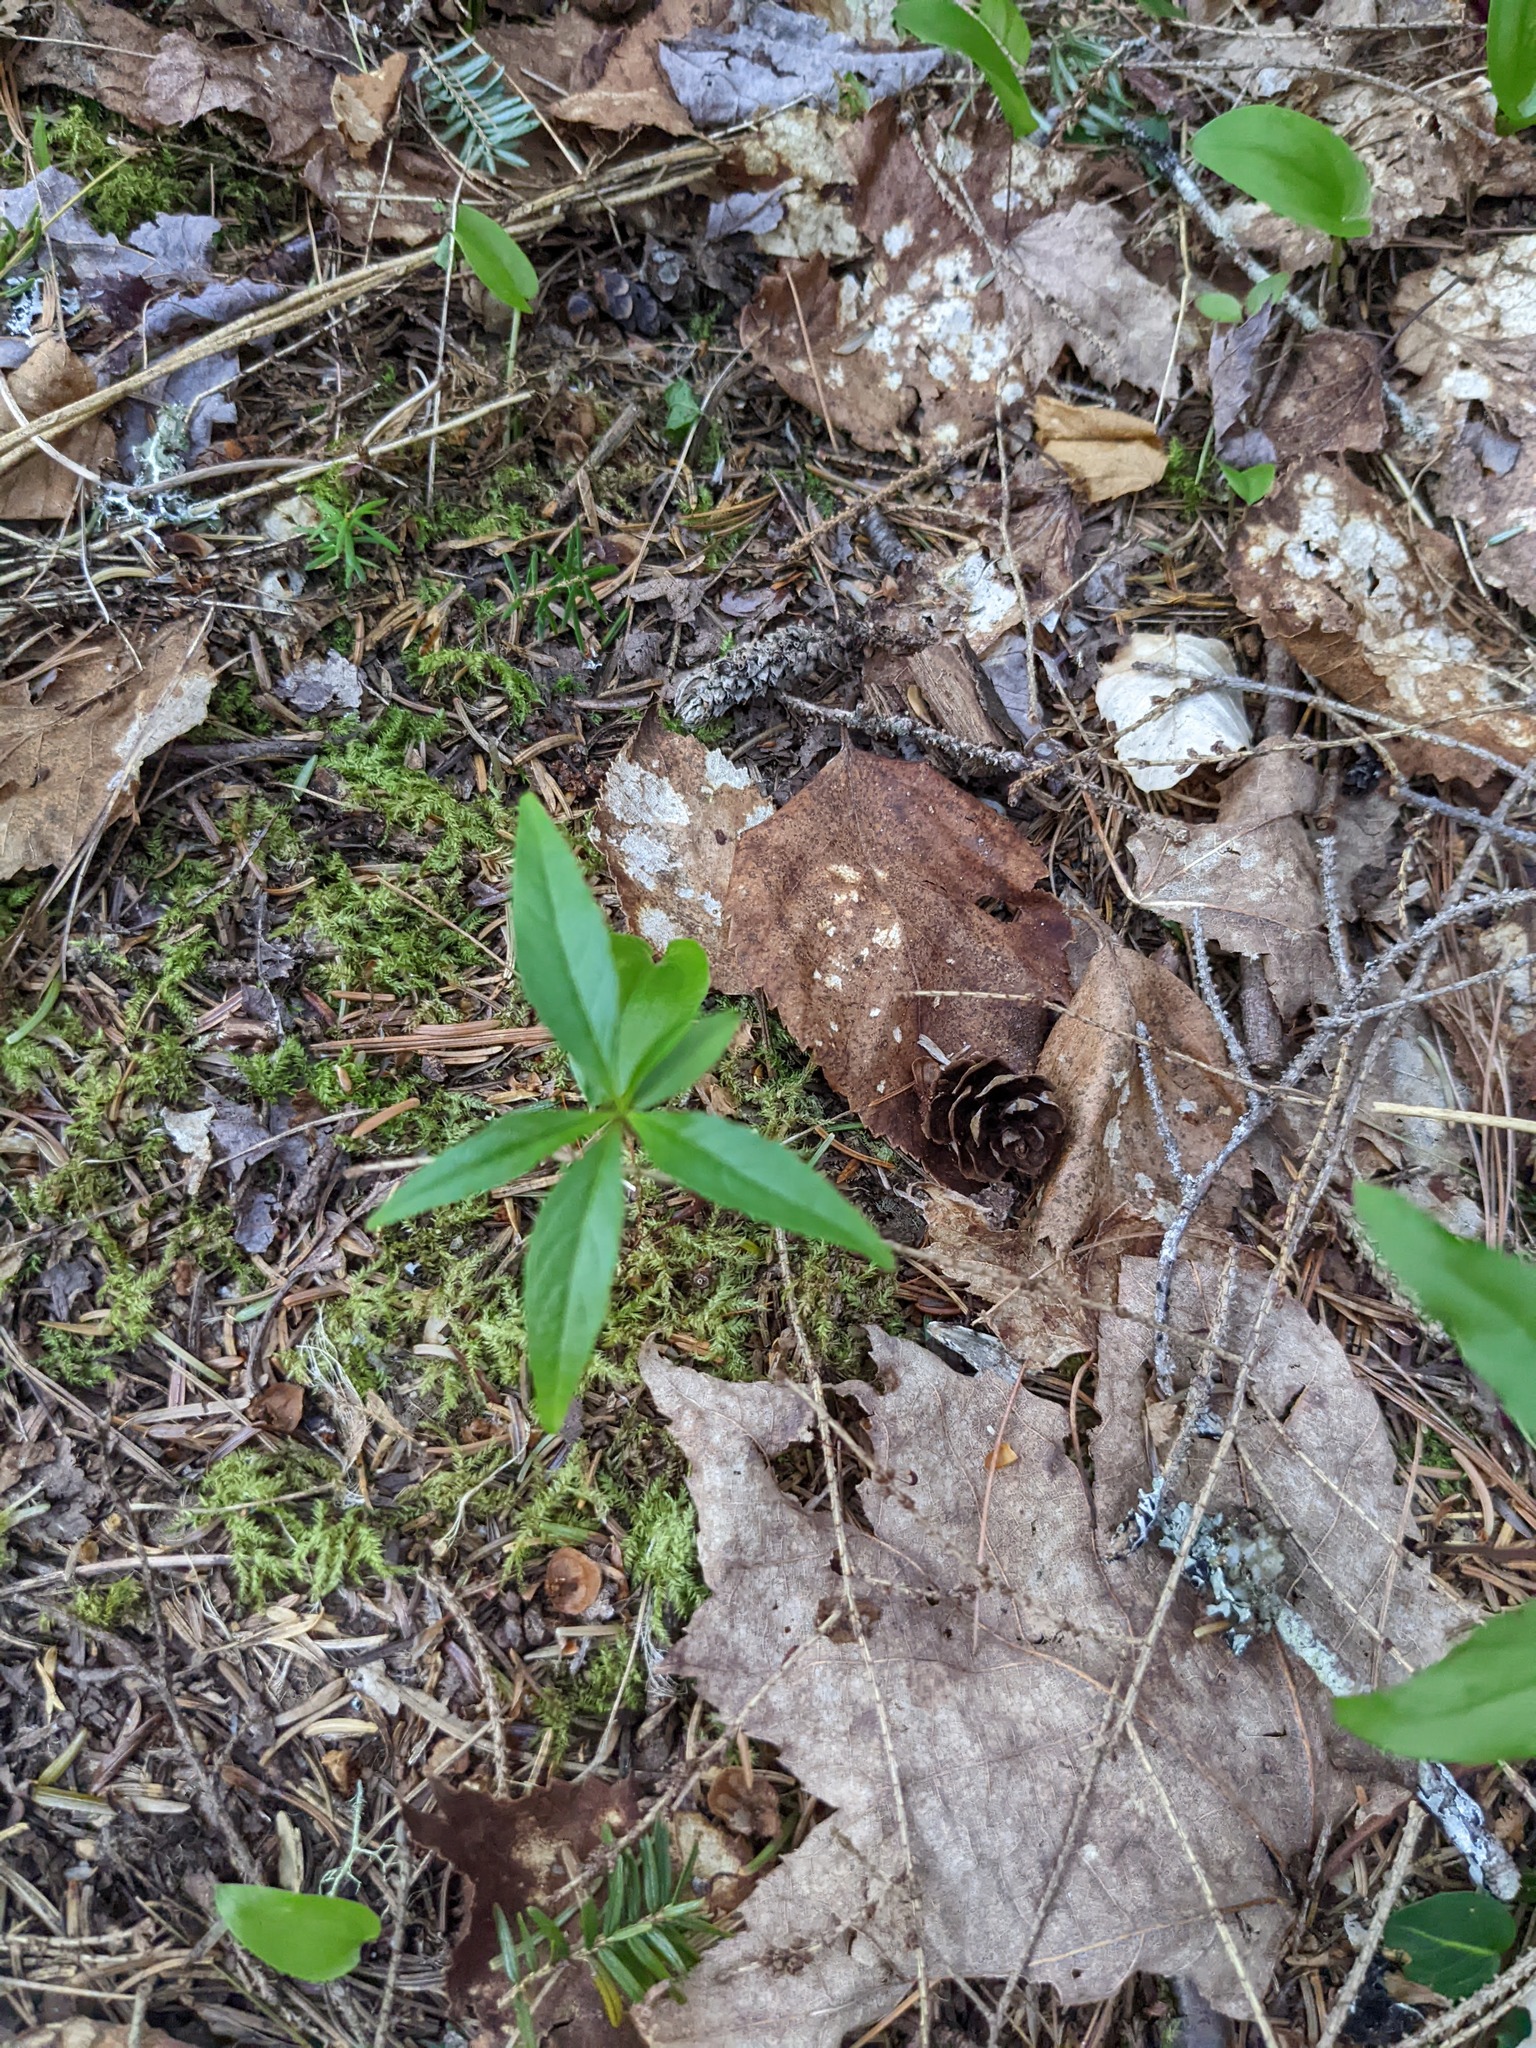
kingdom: Plantae
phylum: Tracheophyta
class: Magnoliopsida
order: Ericales
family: Primulaceae
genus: Lysimachia
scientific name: Lysimachia borealis
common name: American starflower
